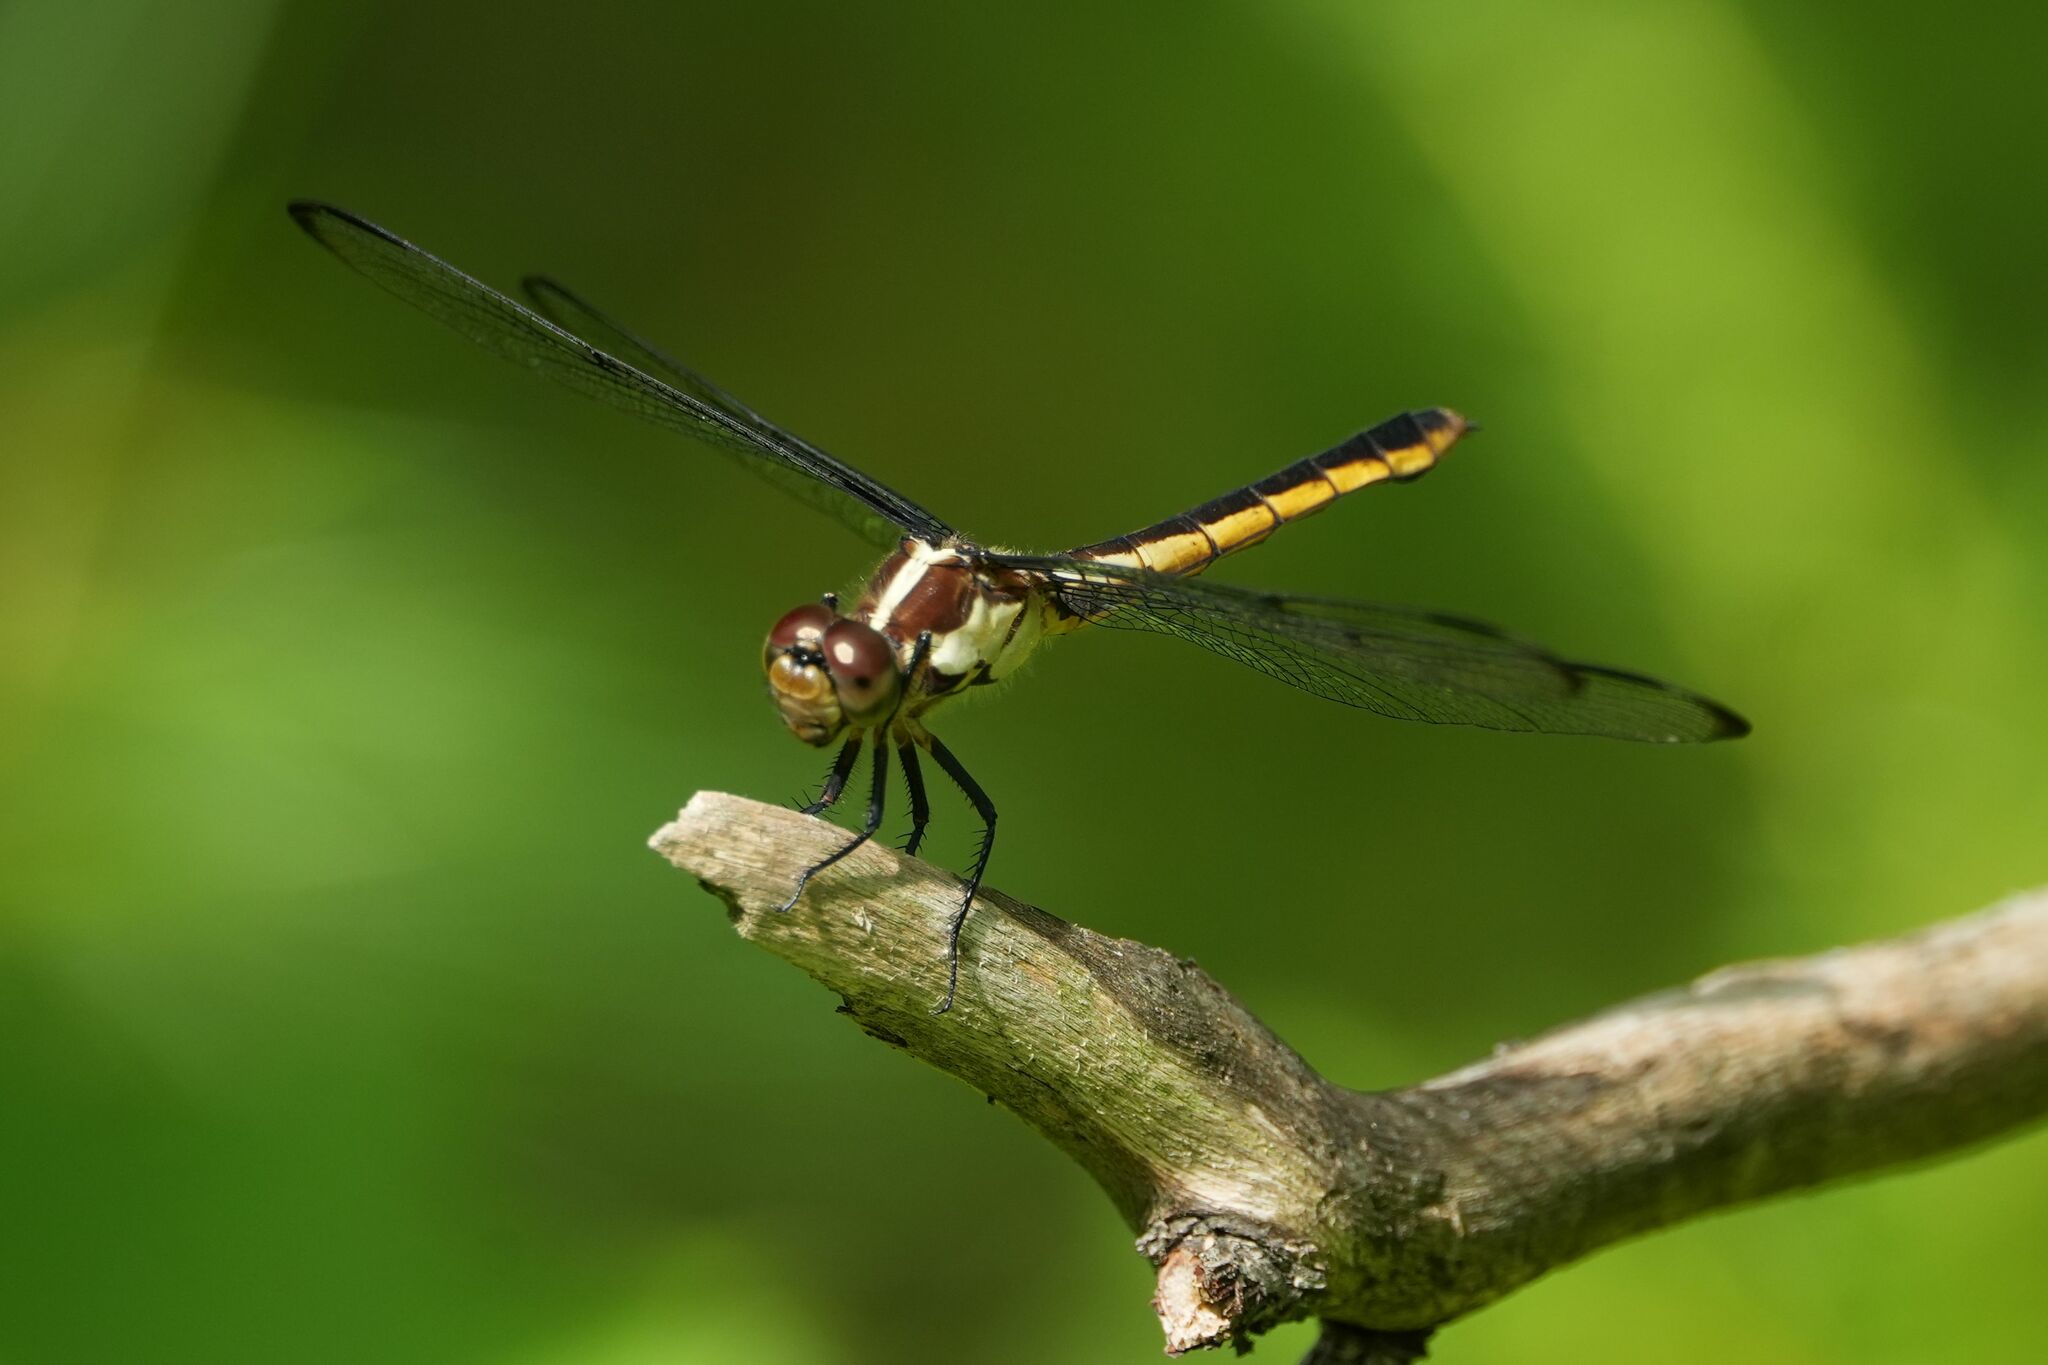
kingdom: Animalia
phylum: Arthropoda
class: Insecta
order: Odonata
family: Libellulidae
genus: Libellula
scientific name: Libellula incesta
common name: Slaty skimmer
